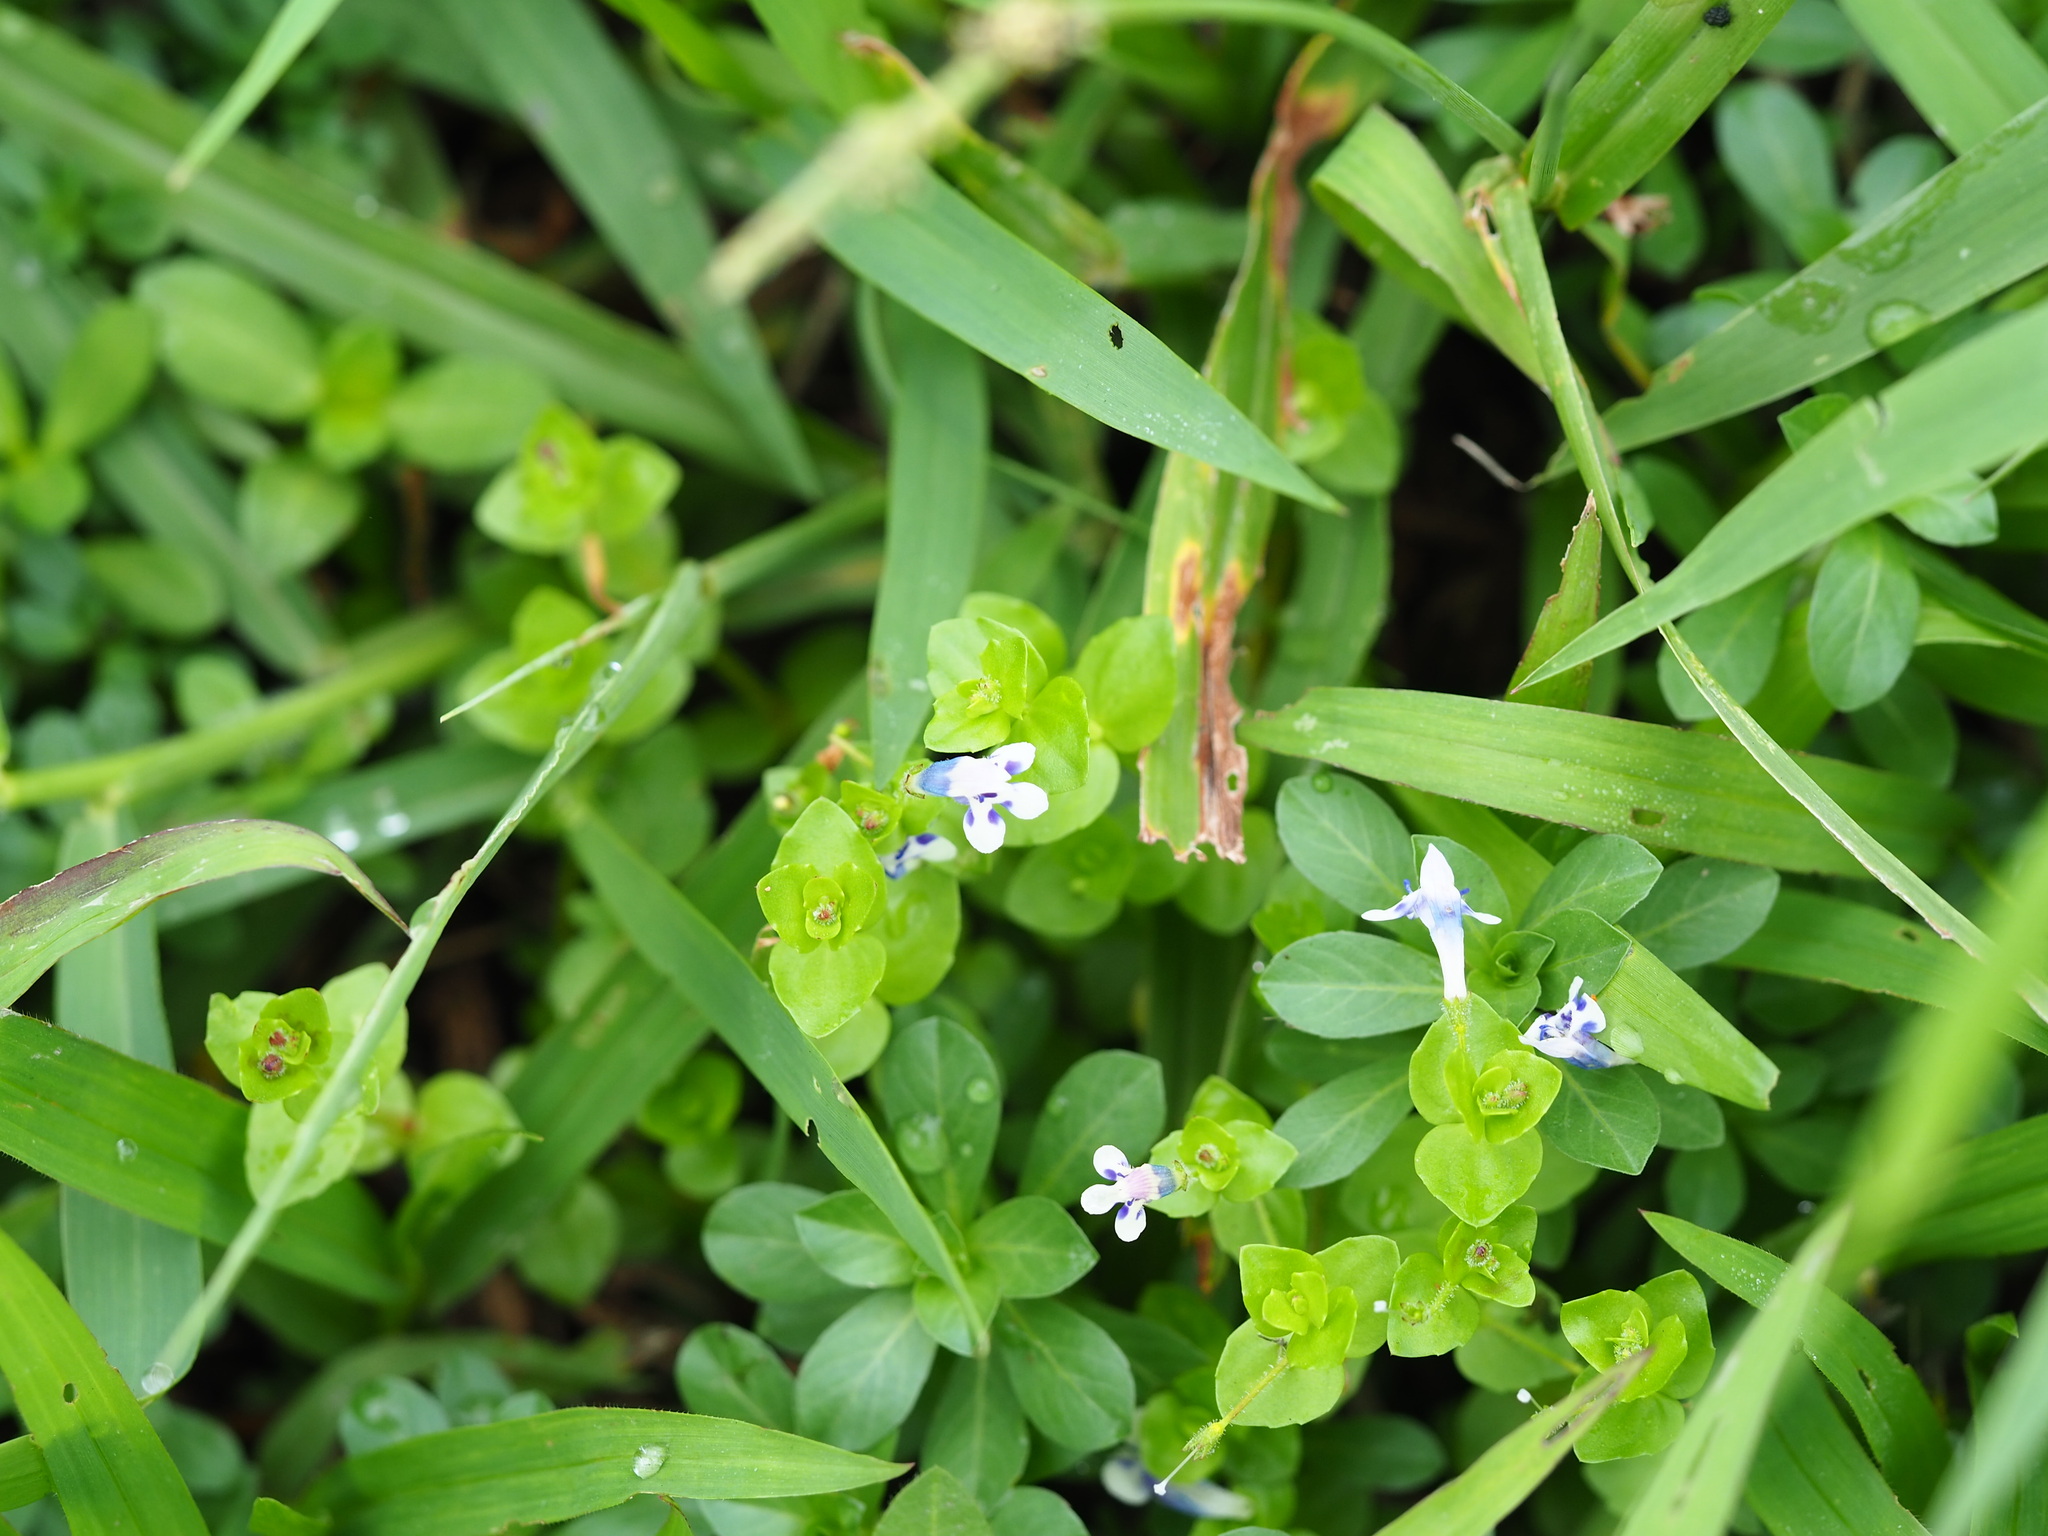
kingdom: Plantae
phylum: Tracheophyta
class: Magnoliopsida
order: Lamiales
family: Linderniaceae
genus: Lindernia
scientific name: Lindernia rotundifolia
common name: Baby’s tears
